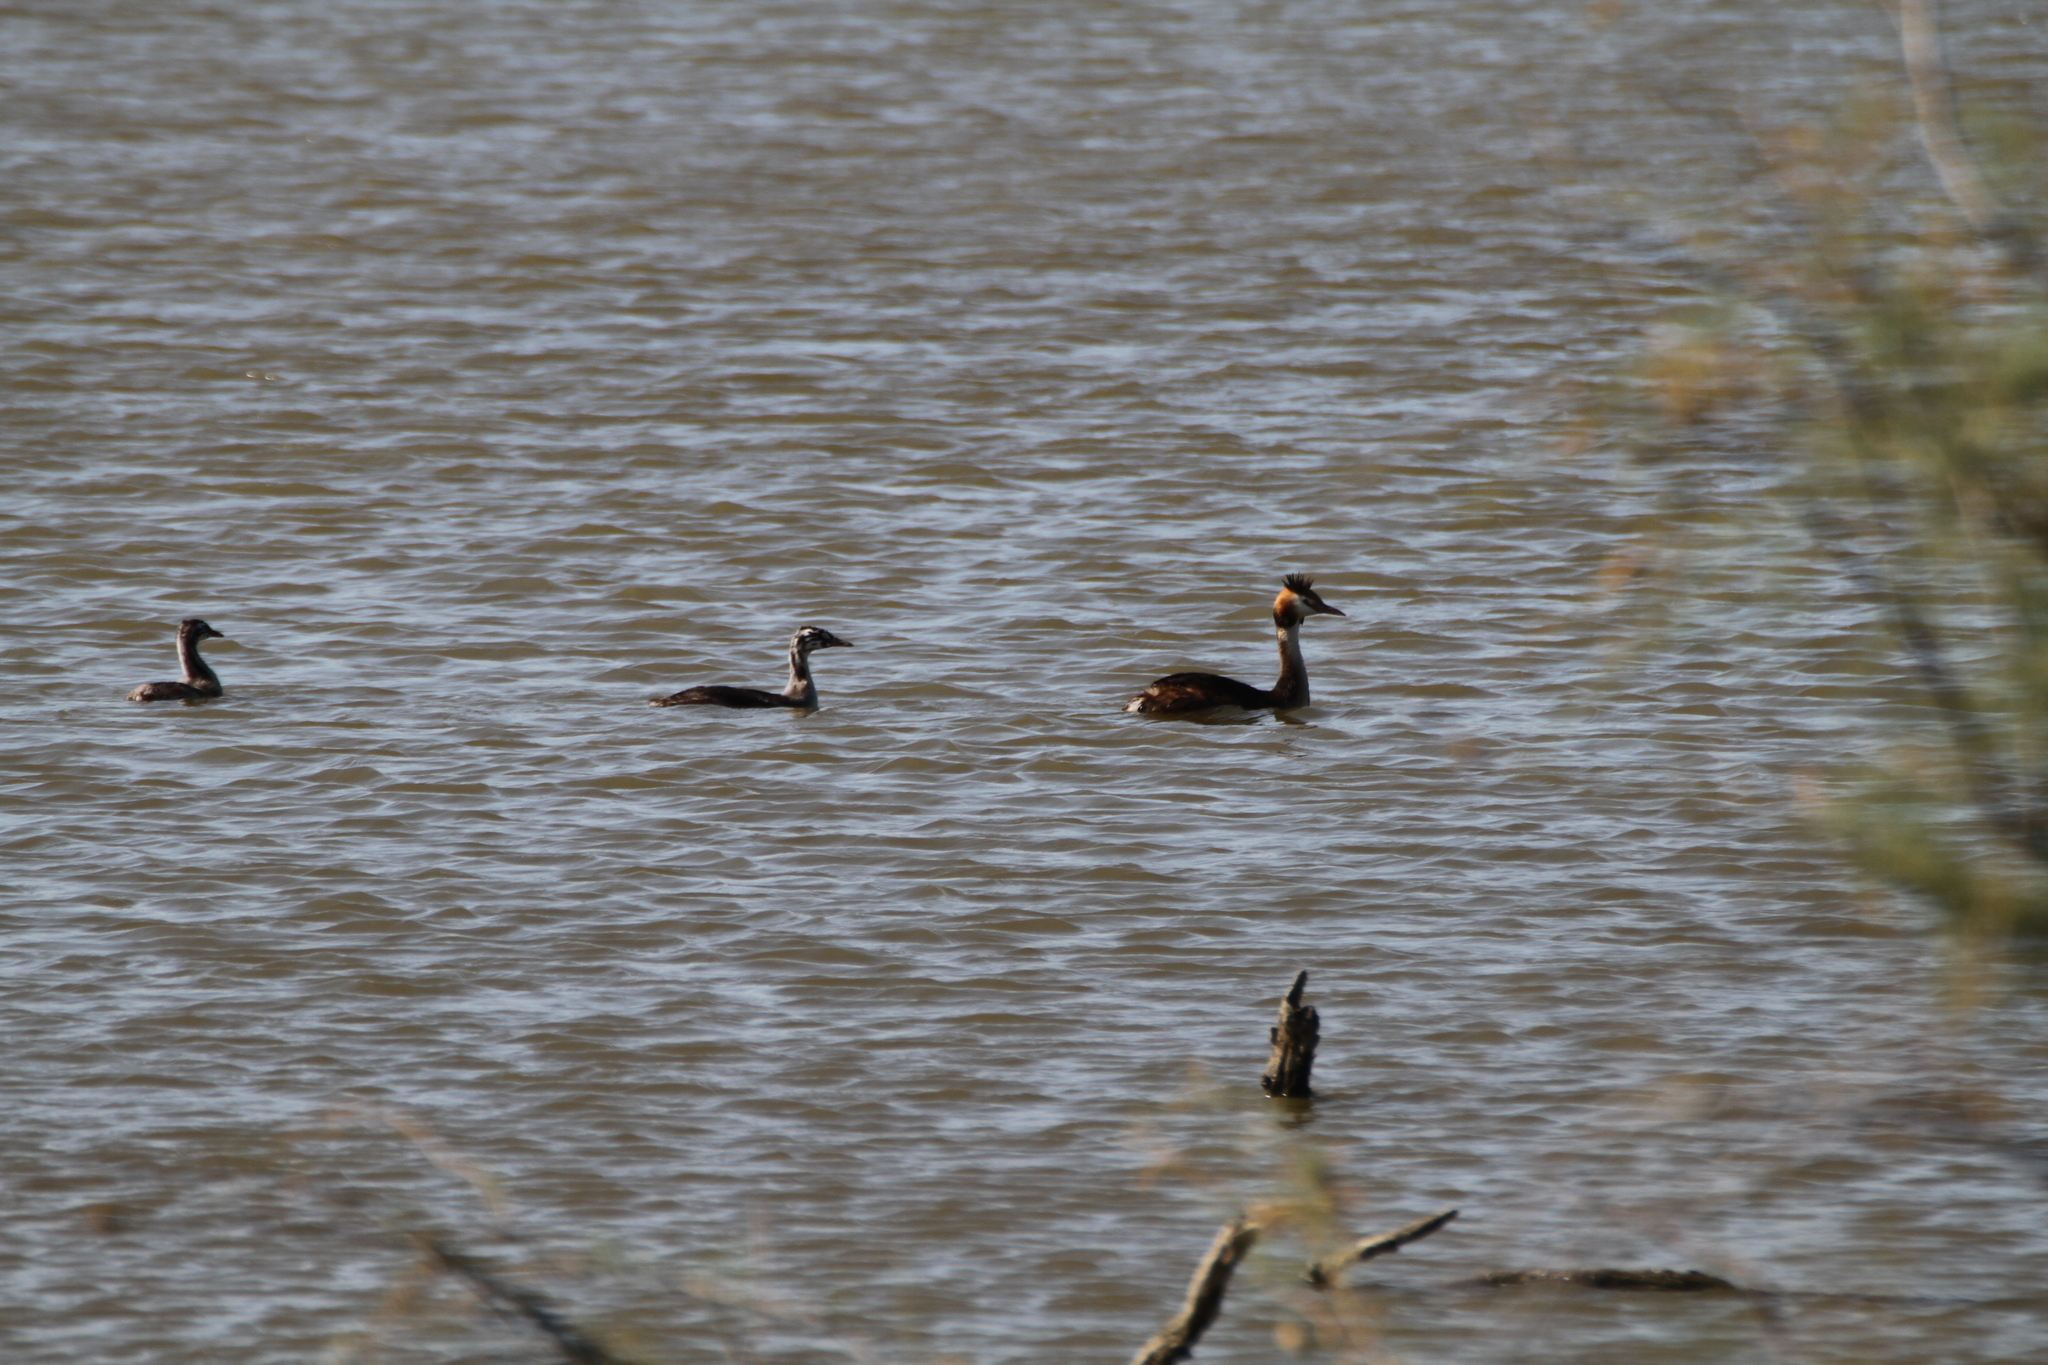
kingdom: Animalia
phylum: Chordata
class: Aves
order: Podicipediformes
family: Podicipedidae
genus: Podiceps
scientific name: Podiceps cristatus
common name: Great crested grebe
